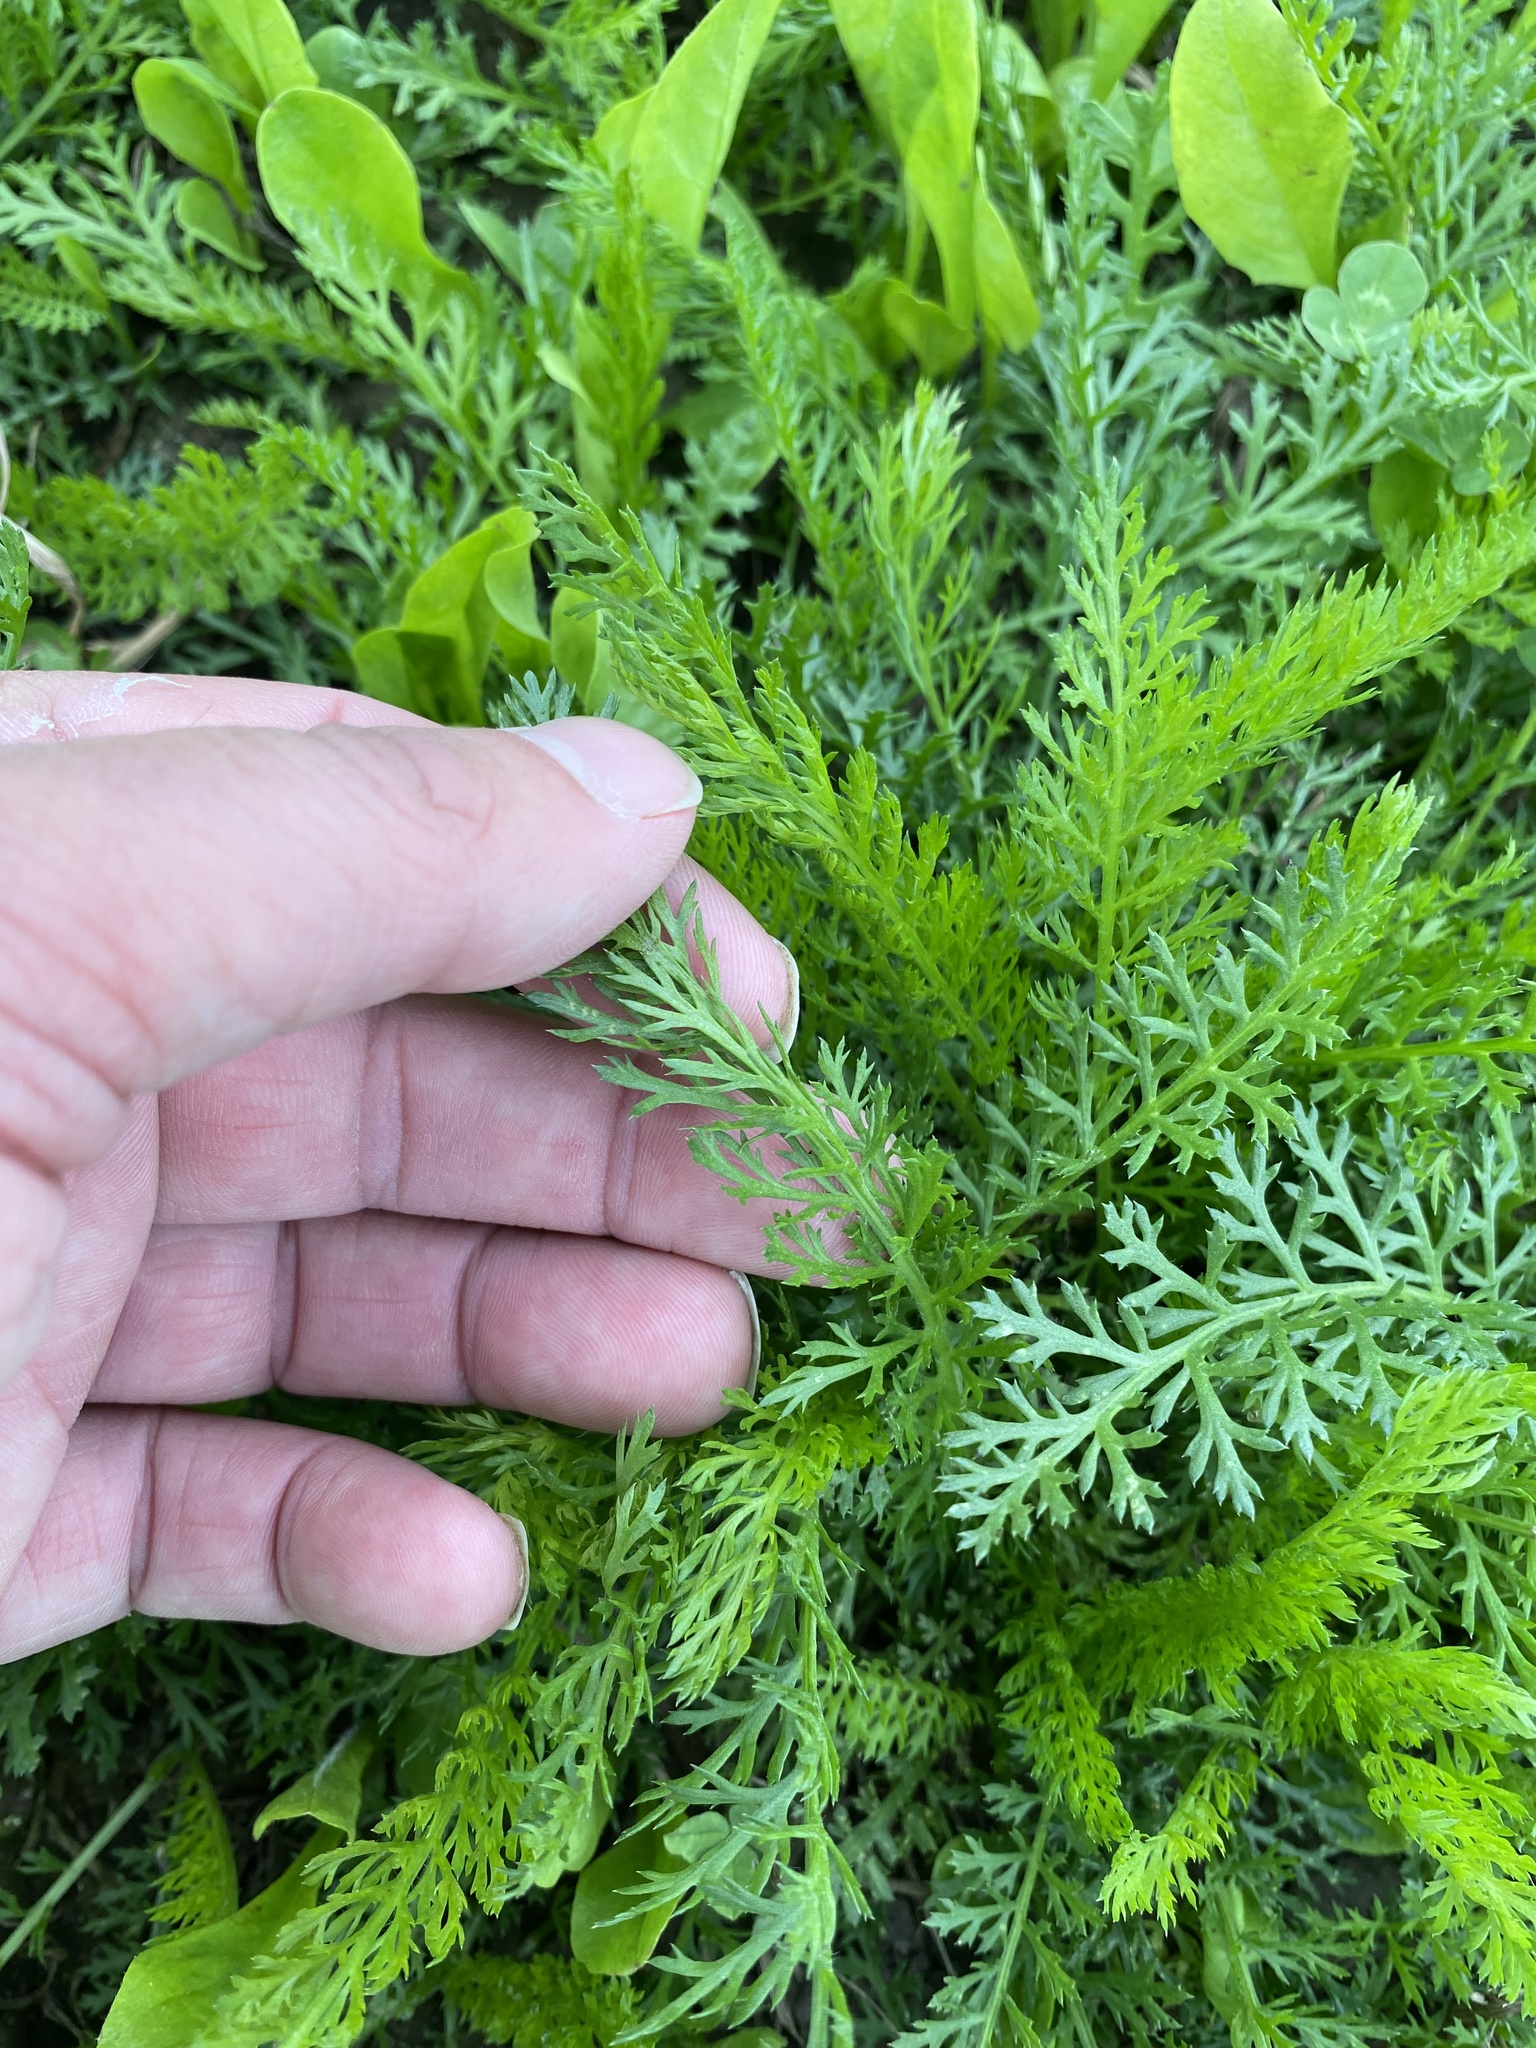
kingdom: Plantae
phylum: Tracheophyta
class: Magnoliopsida
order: Asterales
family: Asteraceae
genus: Achillea
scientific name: Achillea millefolium
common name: Yarrow
